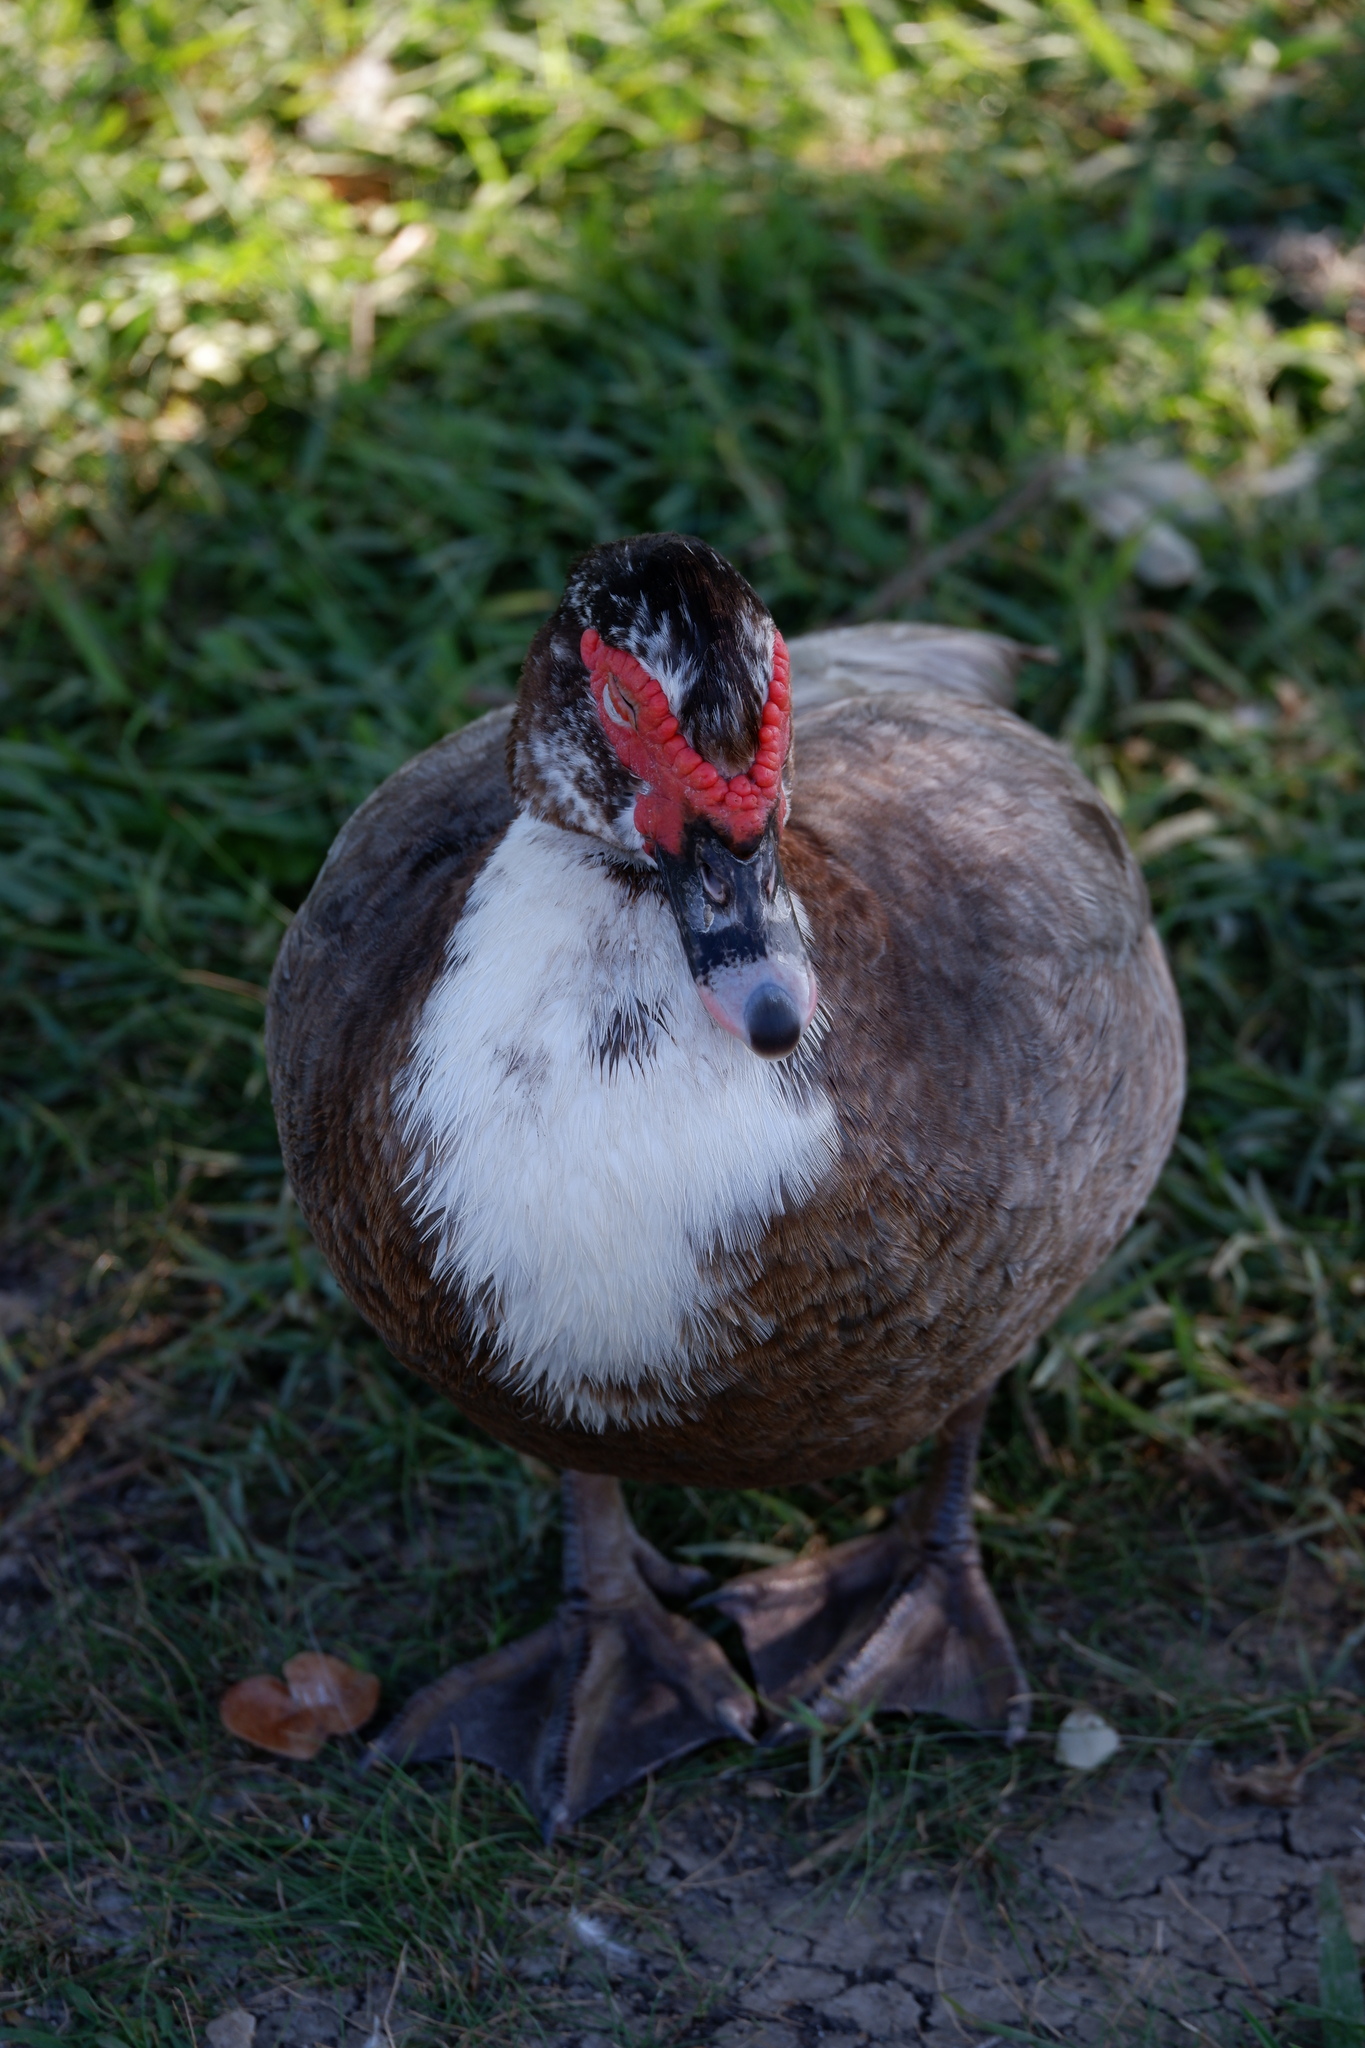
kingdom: Animalia
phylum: Chordata
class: Aves
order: Anseriformes
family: Anatidae
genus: Cairina
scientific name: Cairina moschata
